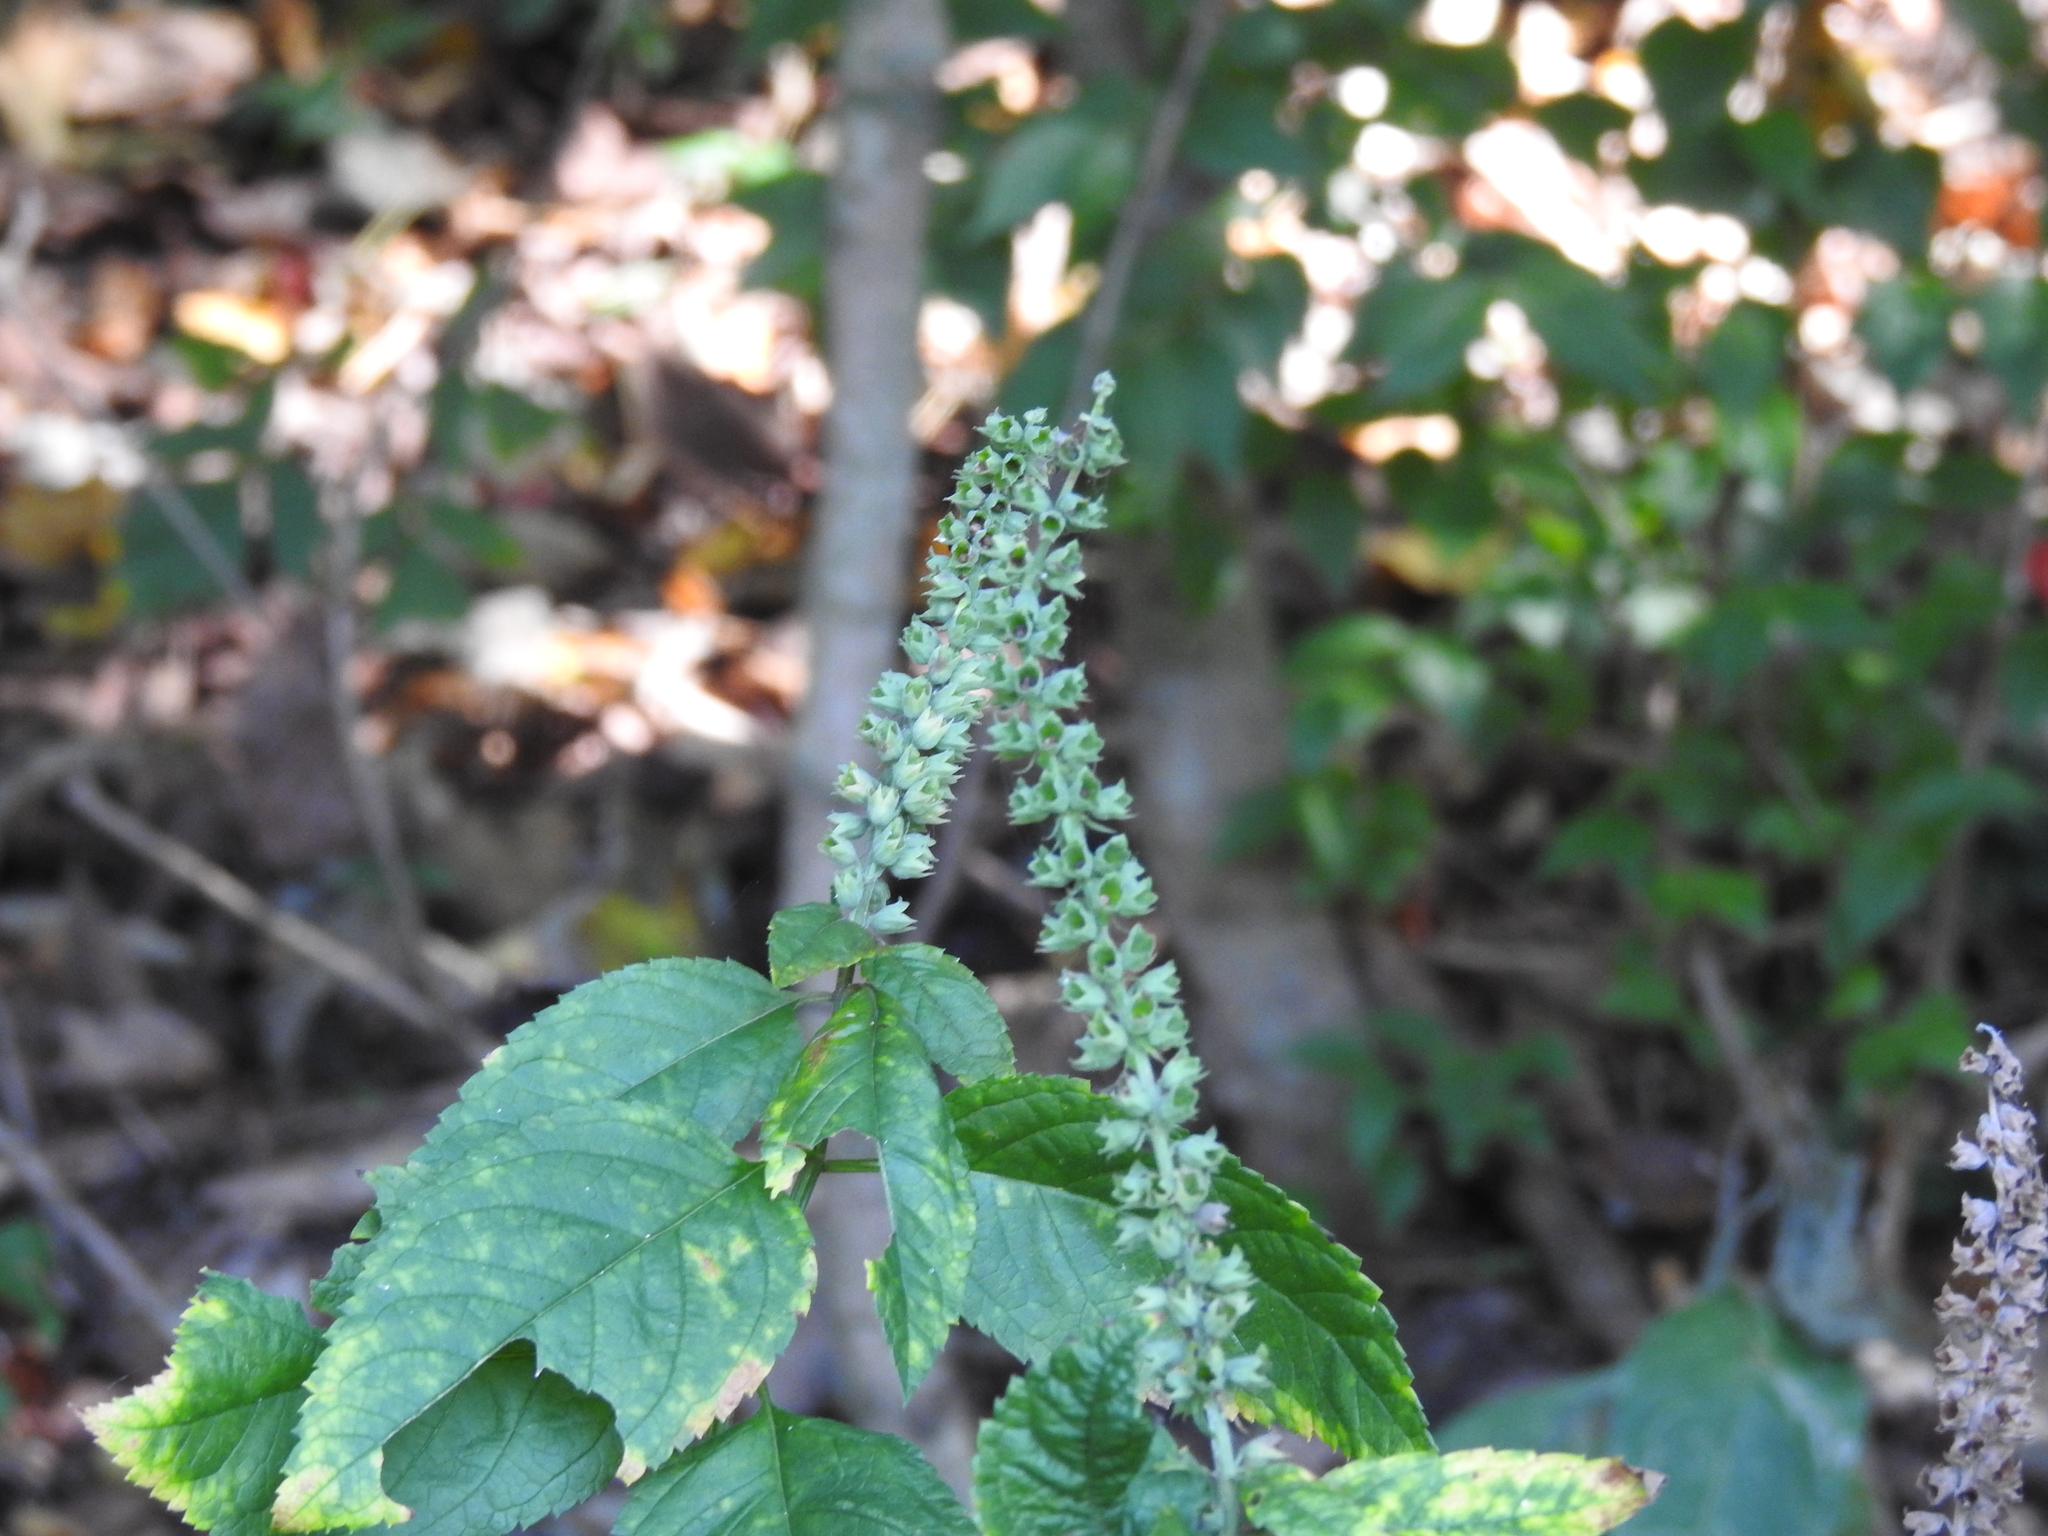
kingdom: Plantae
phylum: Tracheophyta
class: Magnoliopsida
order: Lamiales
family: Lamiaceae
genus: Teucrium
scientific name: Teucrium canadense
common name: American germander
